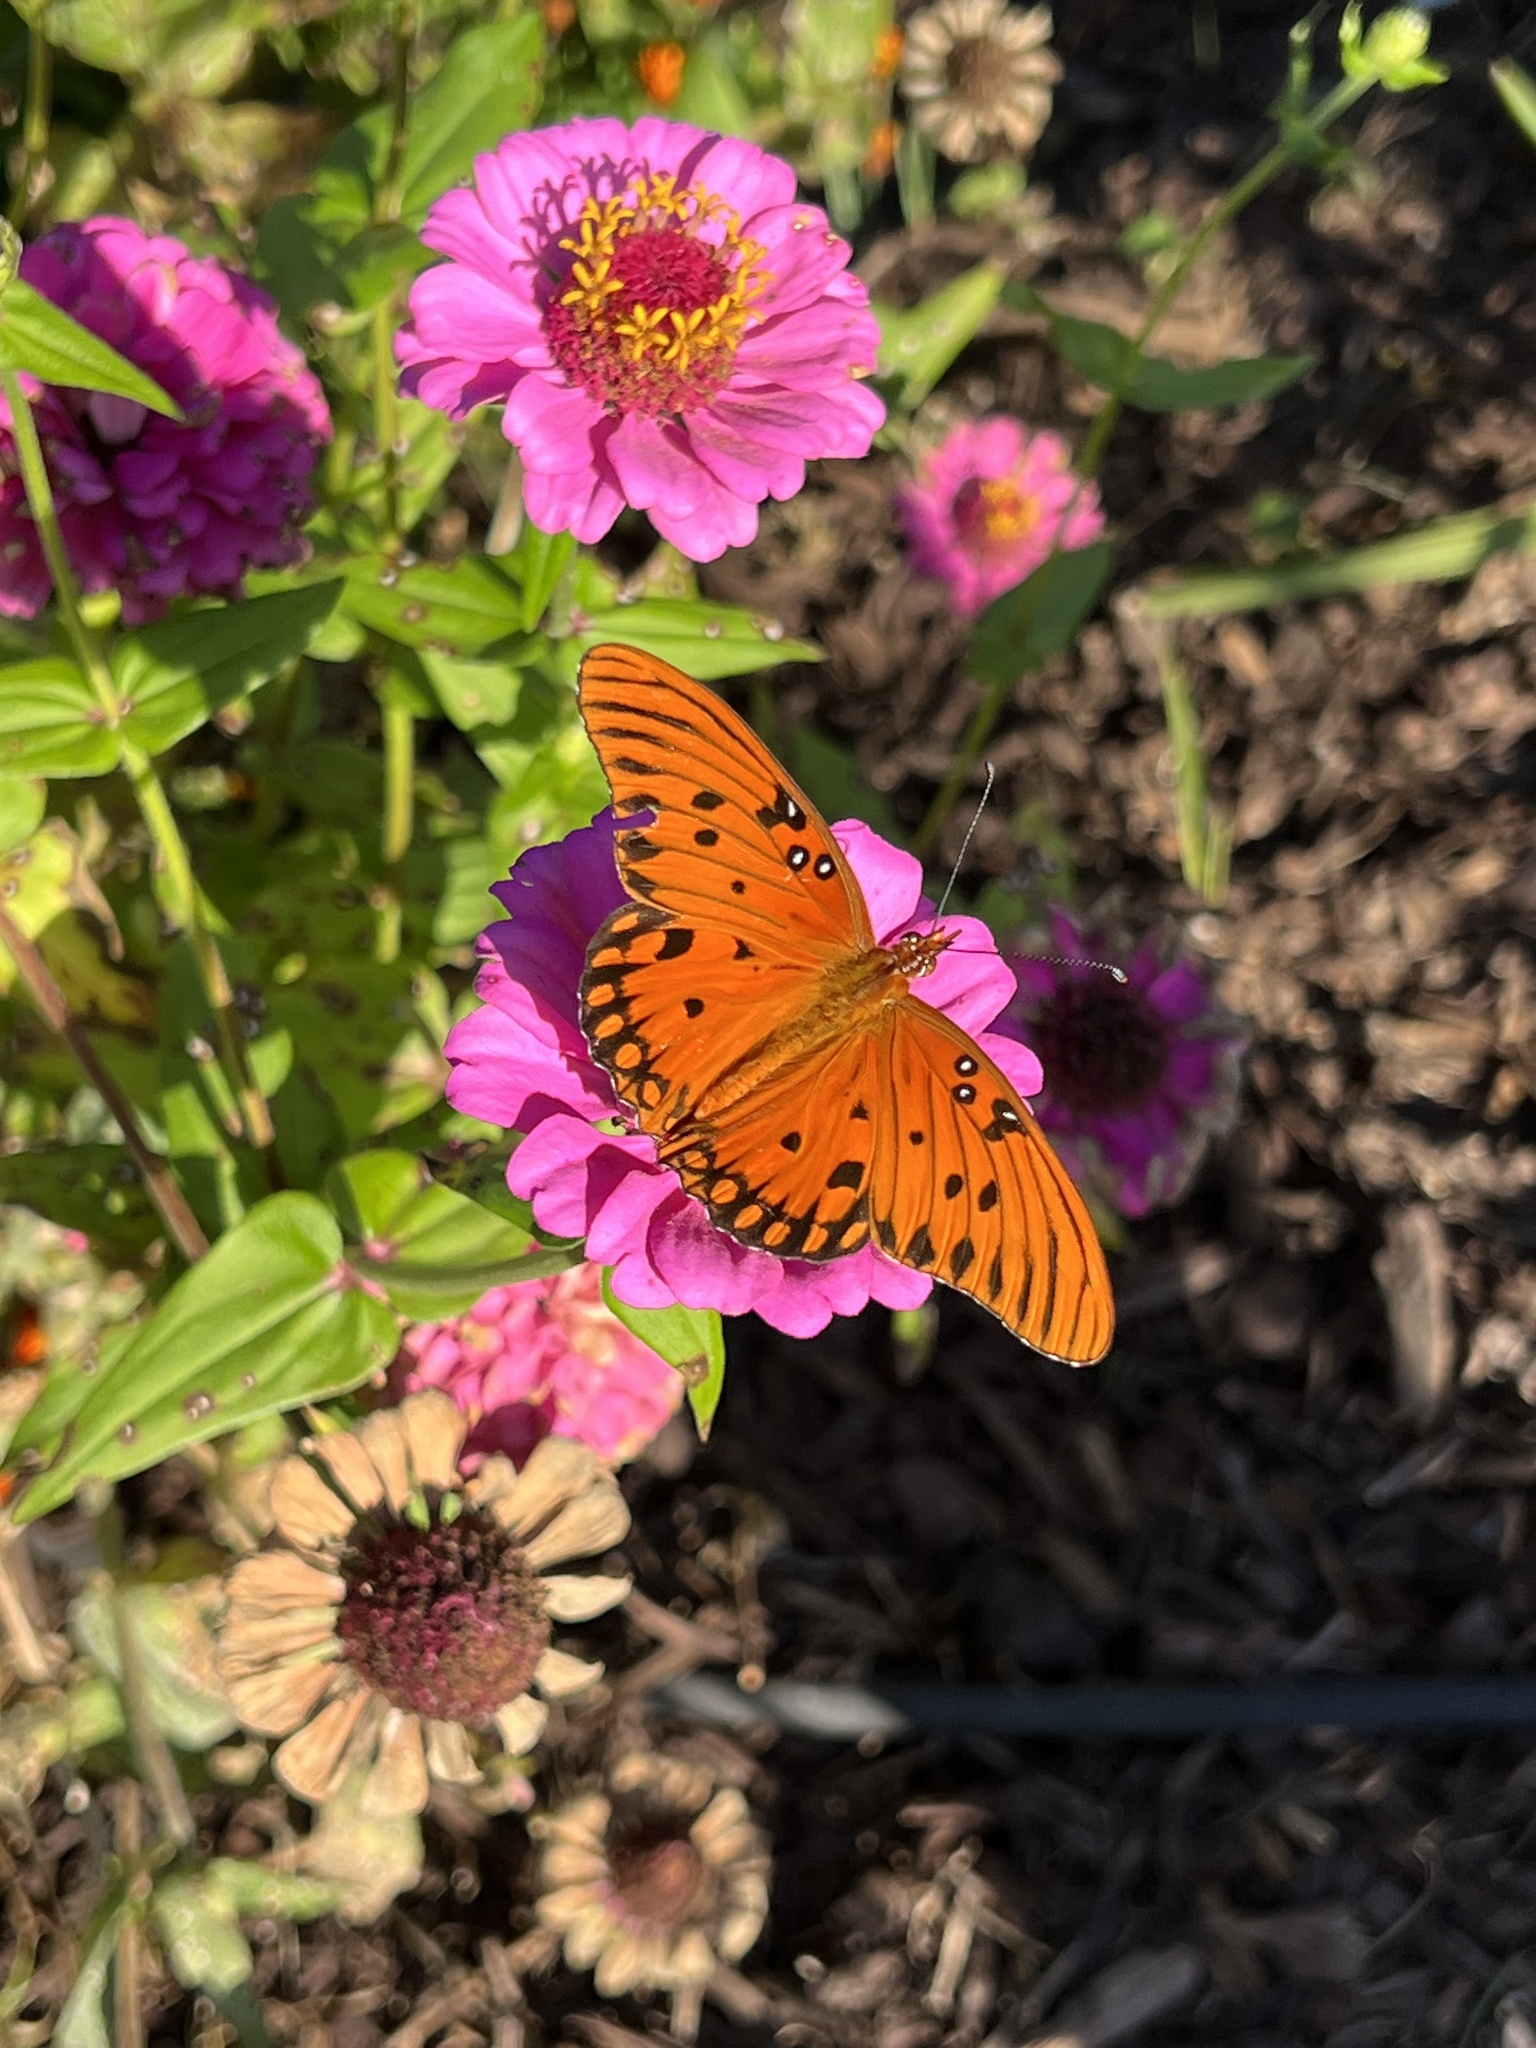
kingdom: Animalia
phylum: Arthropoda
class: Insecta
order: Lepidoptera
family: Nymphalidae
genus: Dione
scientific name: Dione vanillae
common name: Gulf fritillary
